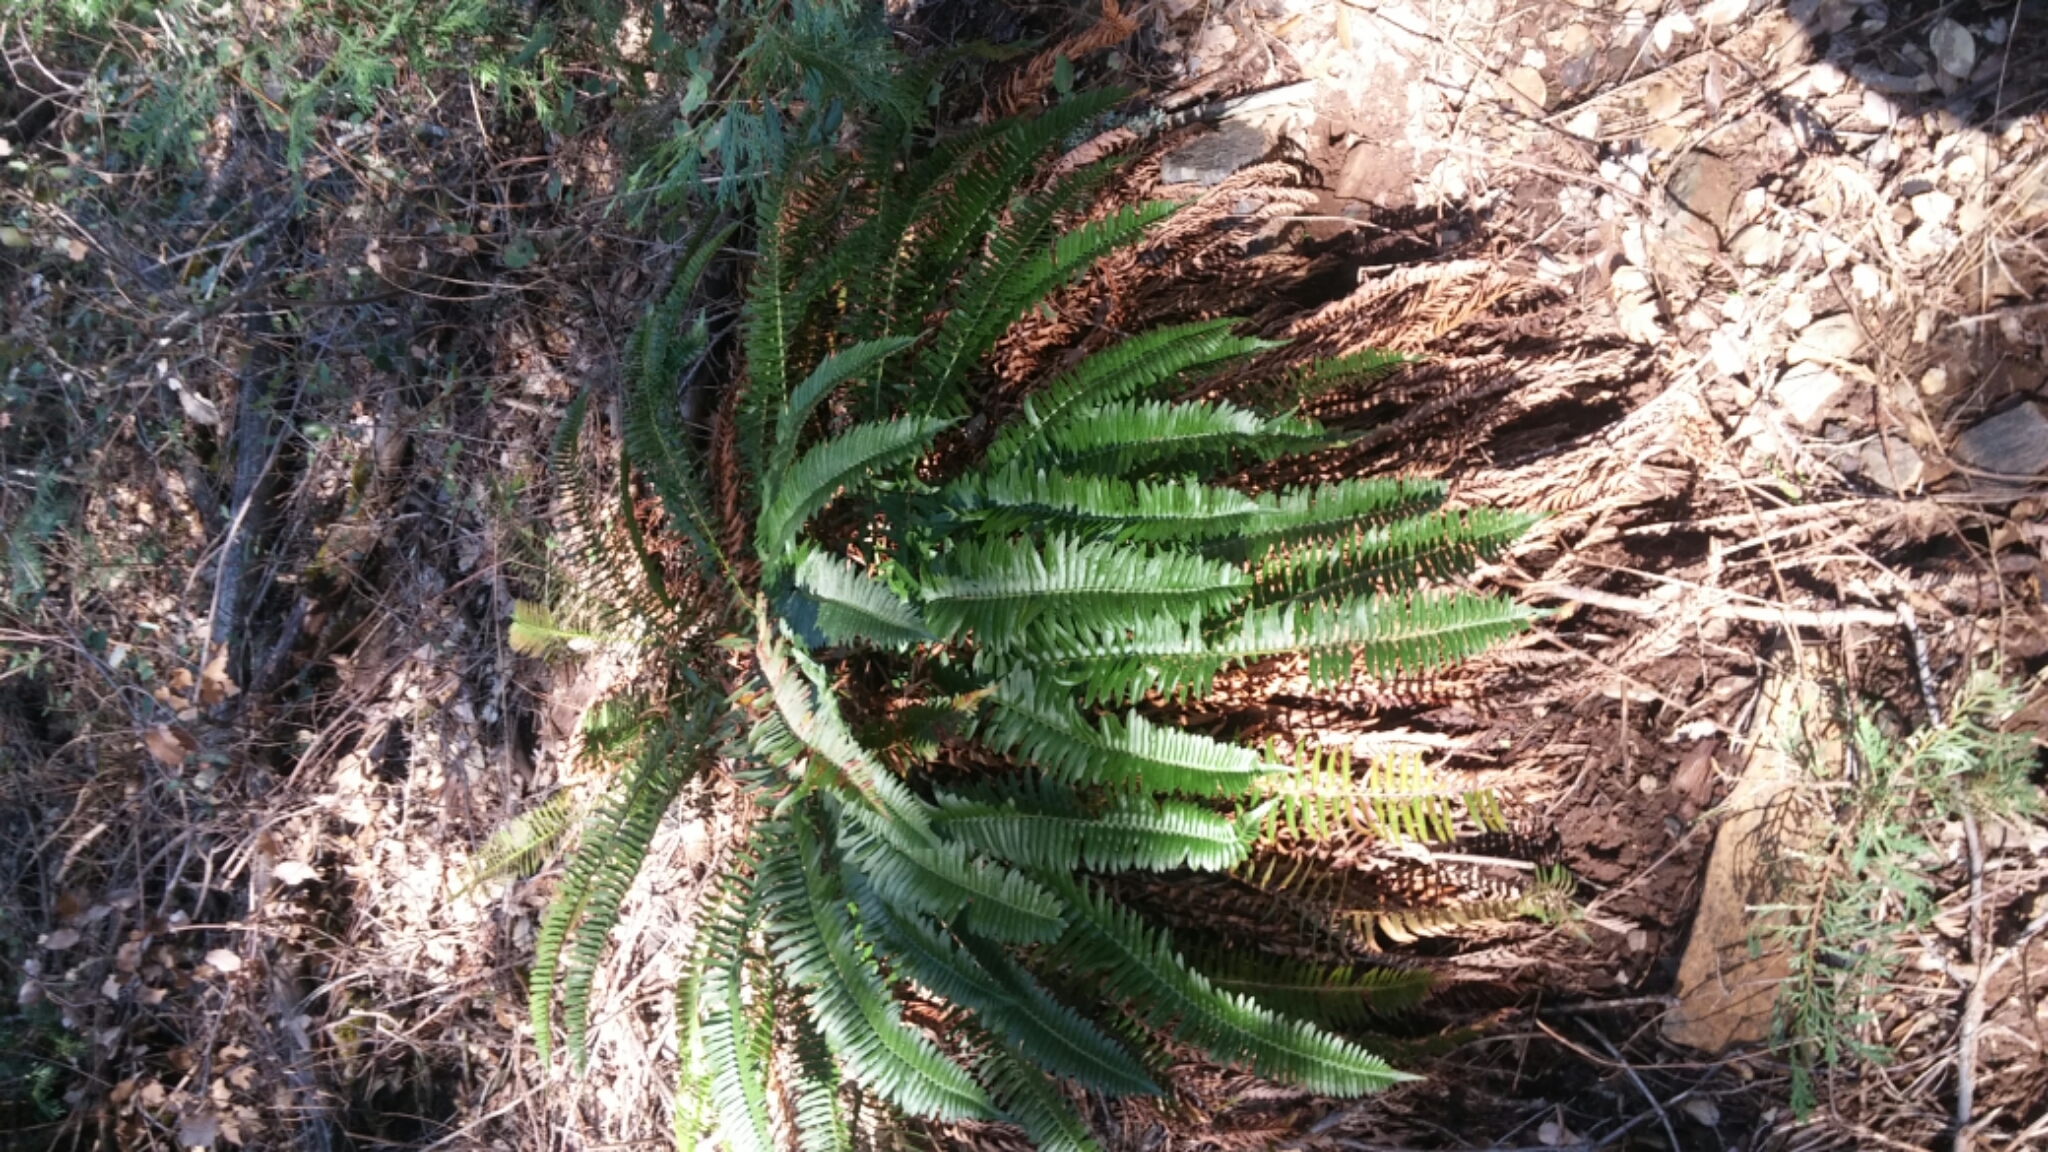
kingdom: Plantae
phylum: Tracheophyta
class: Polypodiopsida
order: Polypodiales
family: Dryopteridaceae
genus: Polystichum
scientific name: Polystichum imbricans
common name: Dwarf western sword fern
